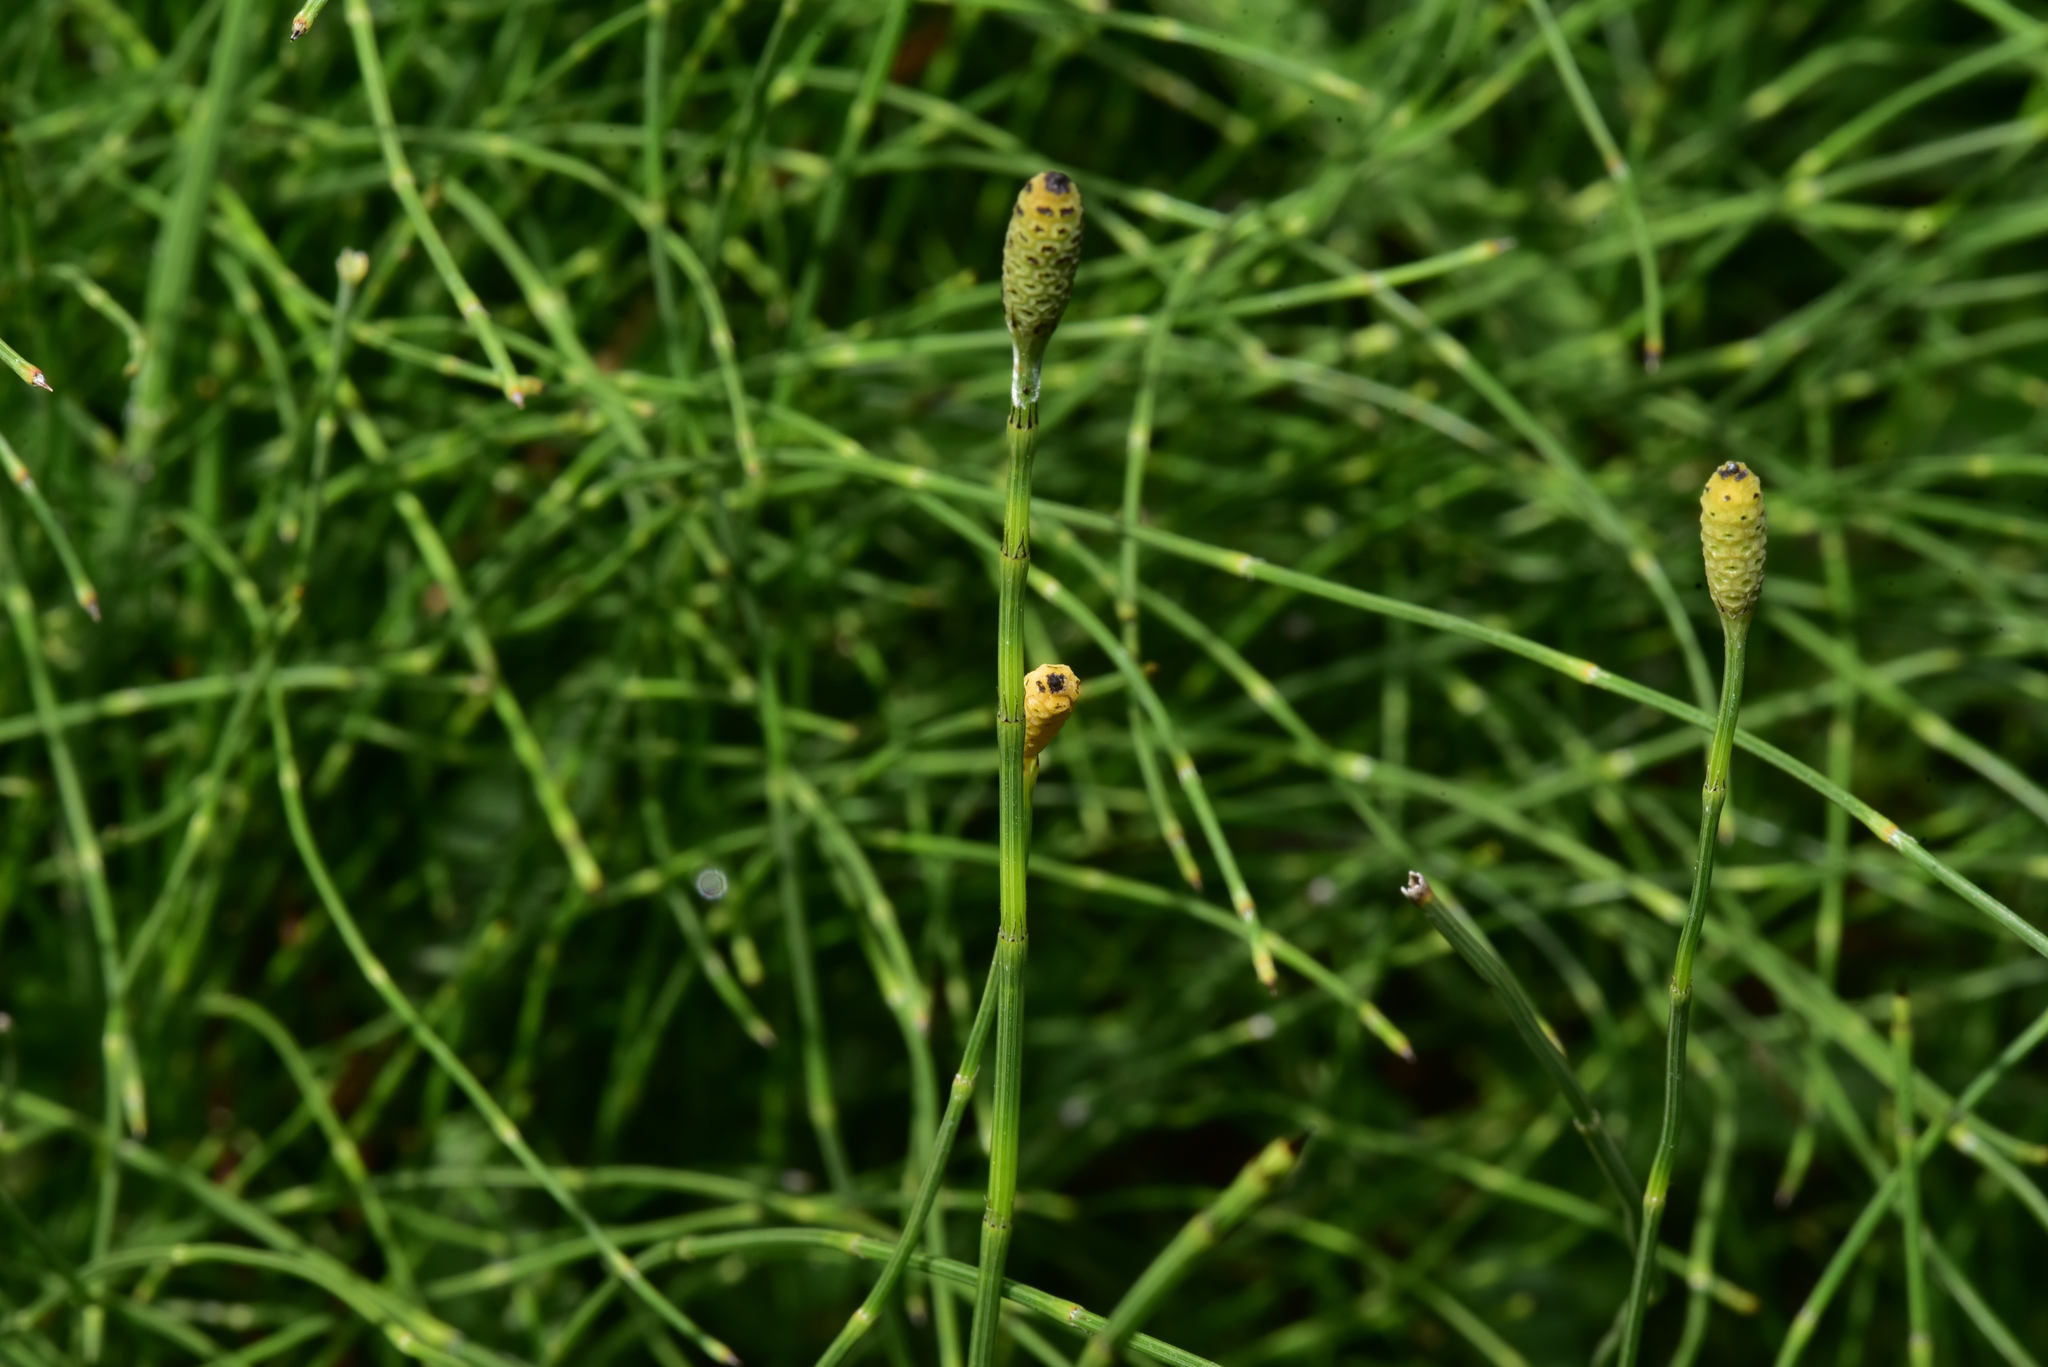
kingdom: Plantae
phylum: Tracheophyta
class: Polypodiopsida
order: Equisetales
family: Equisetaceae
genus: Equisetum
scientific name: Equisetum ramosissimum
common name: Branched horsetail
